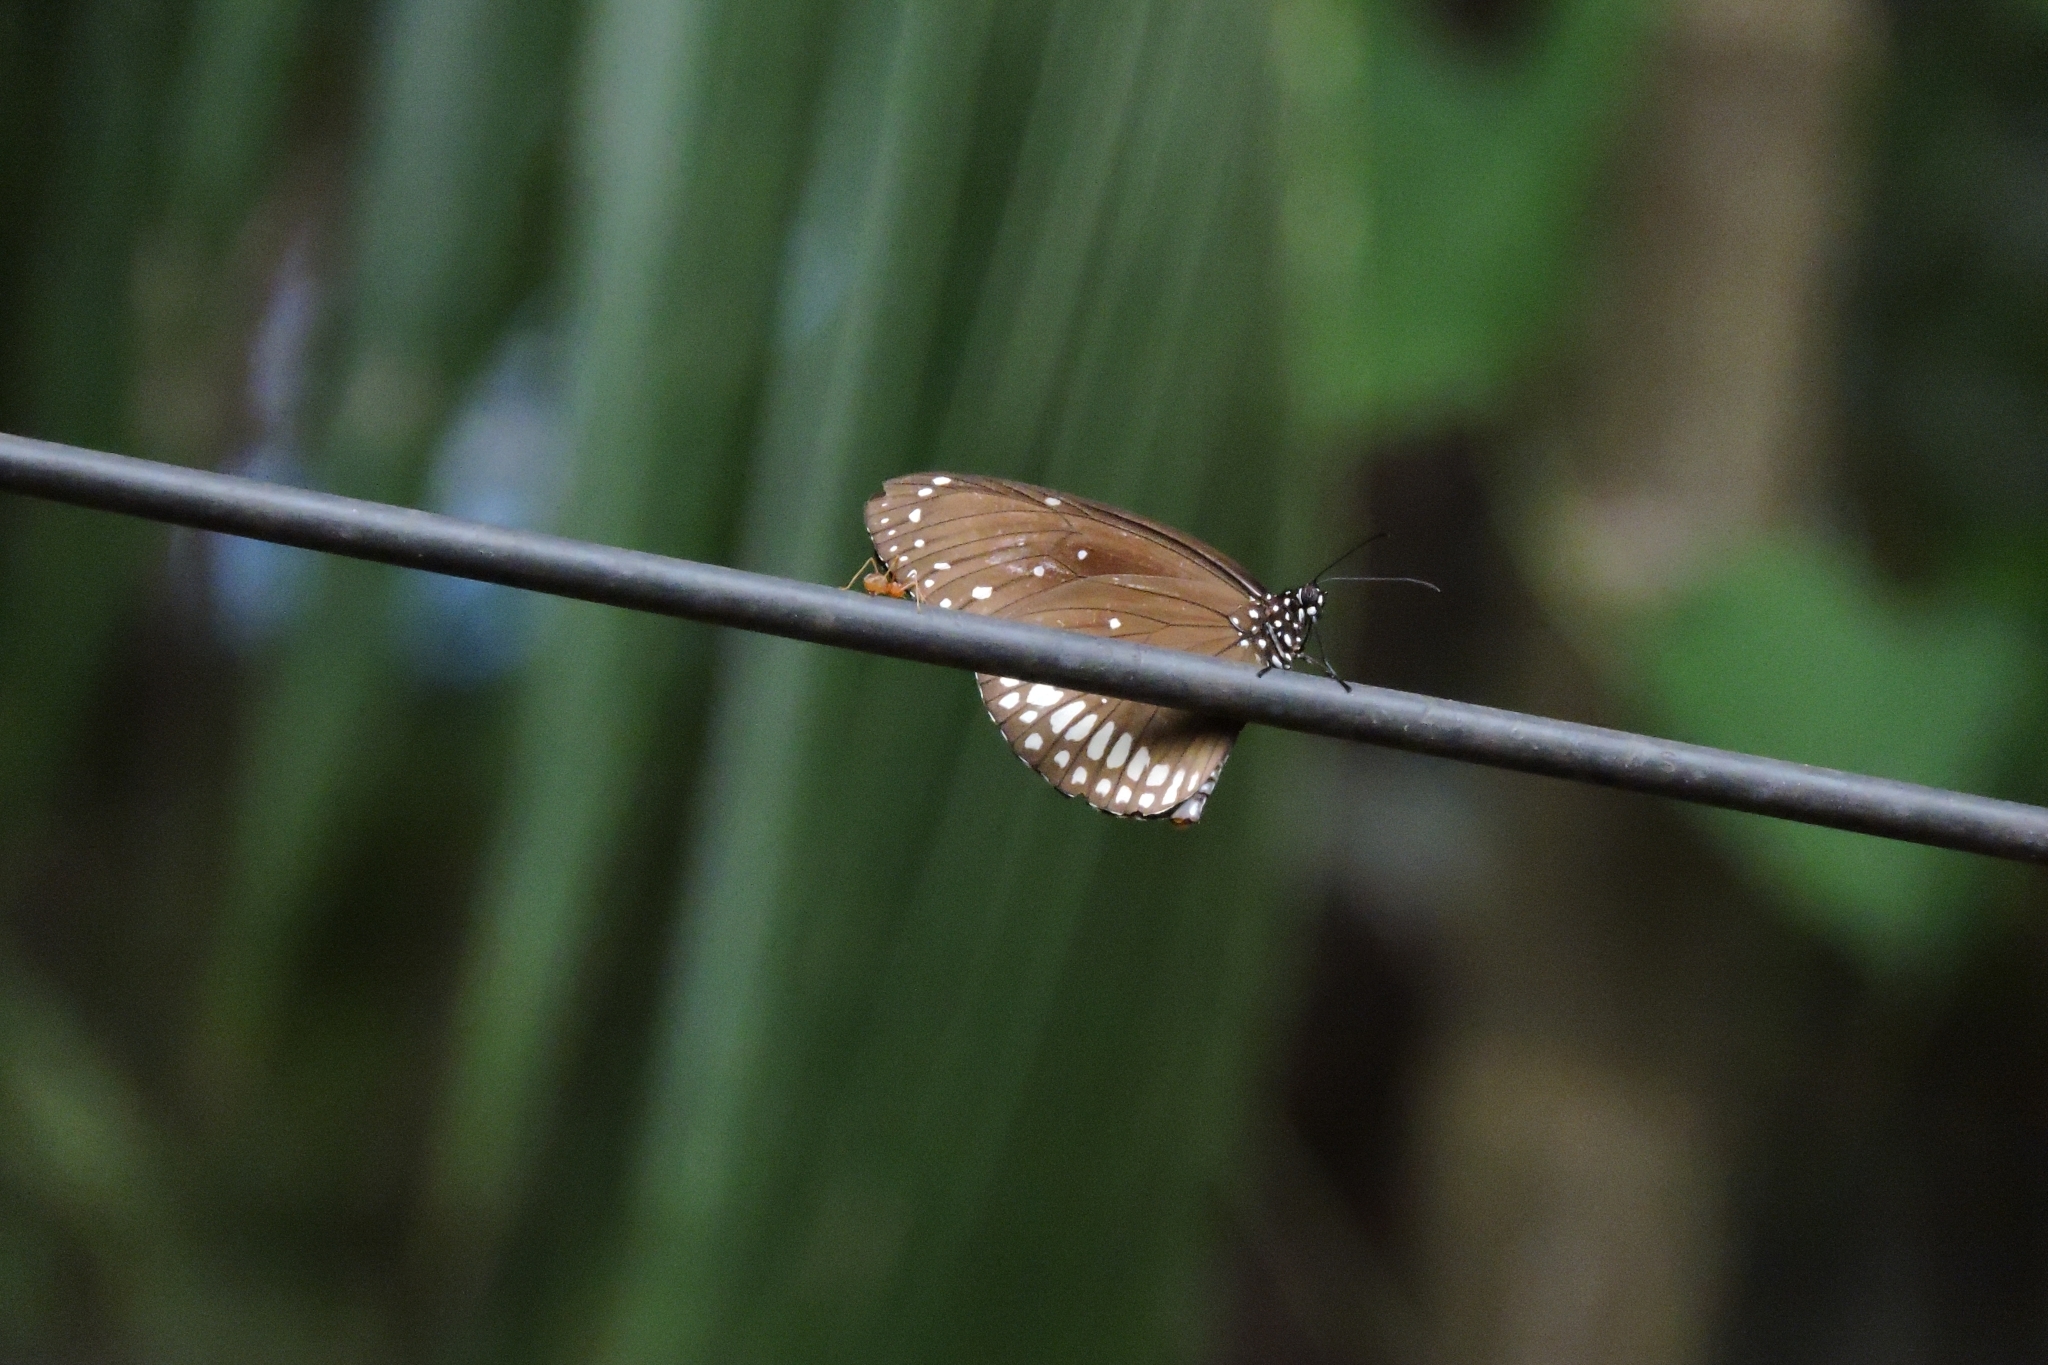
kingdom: Animalia
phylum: Arthropoda
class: Insecta
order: Lepidoptera
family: Nymphalidae
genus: Euploea
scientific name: Euploea core
